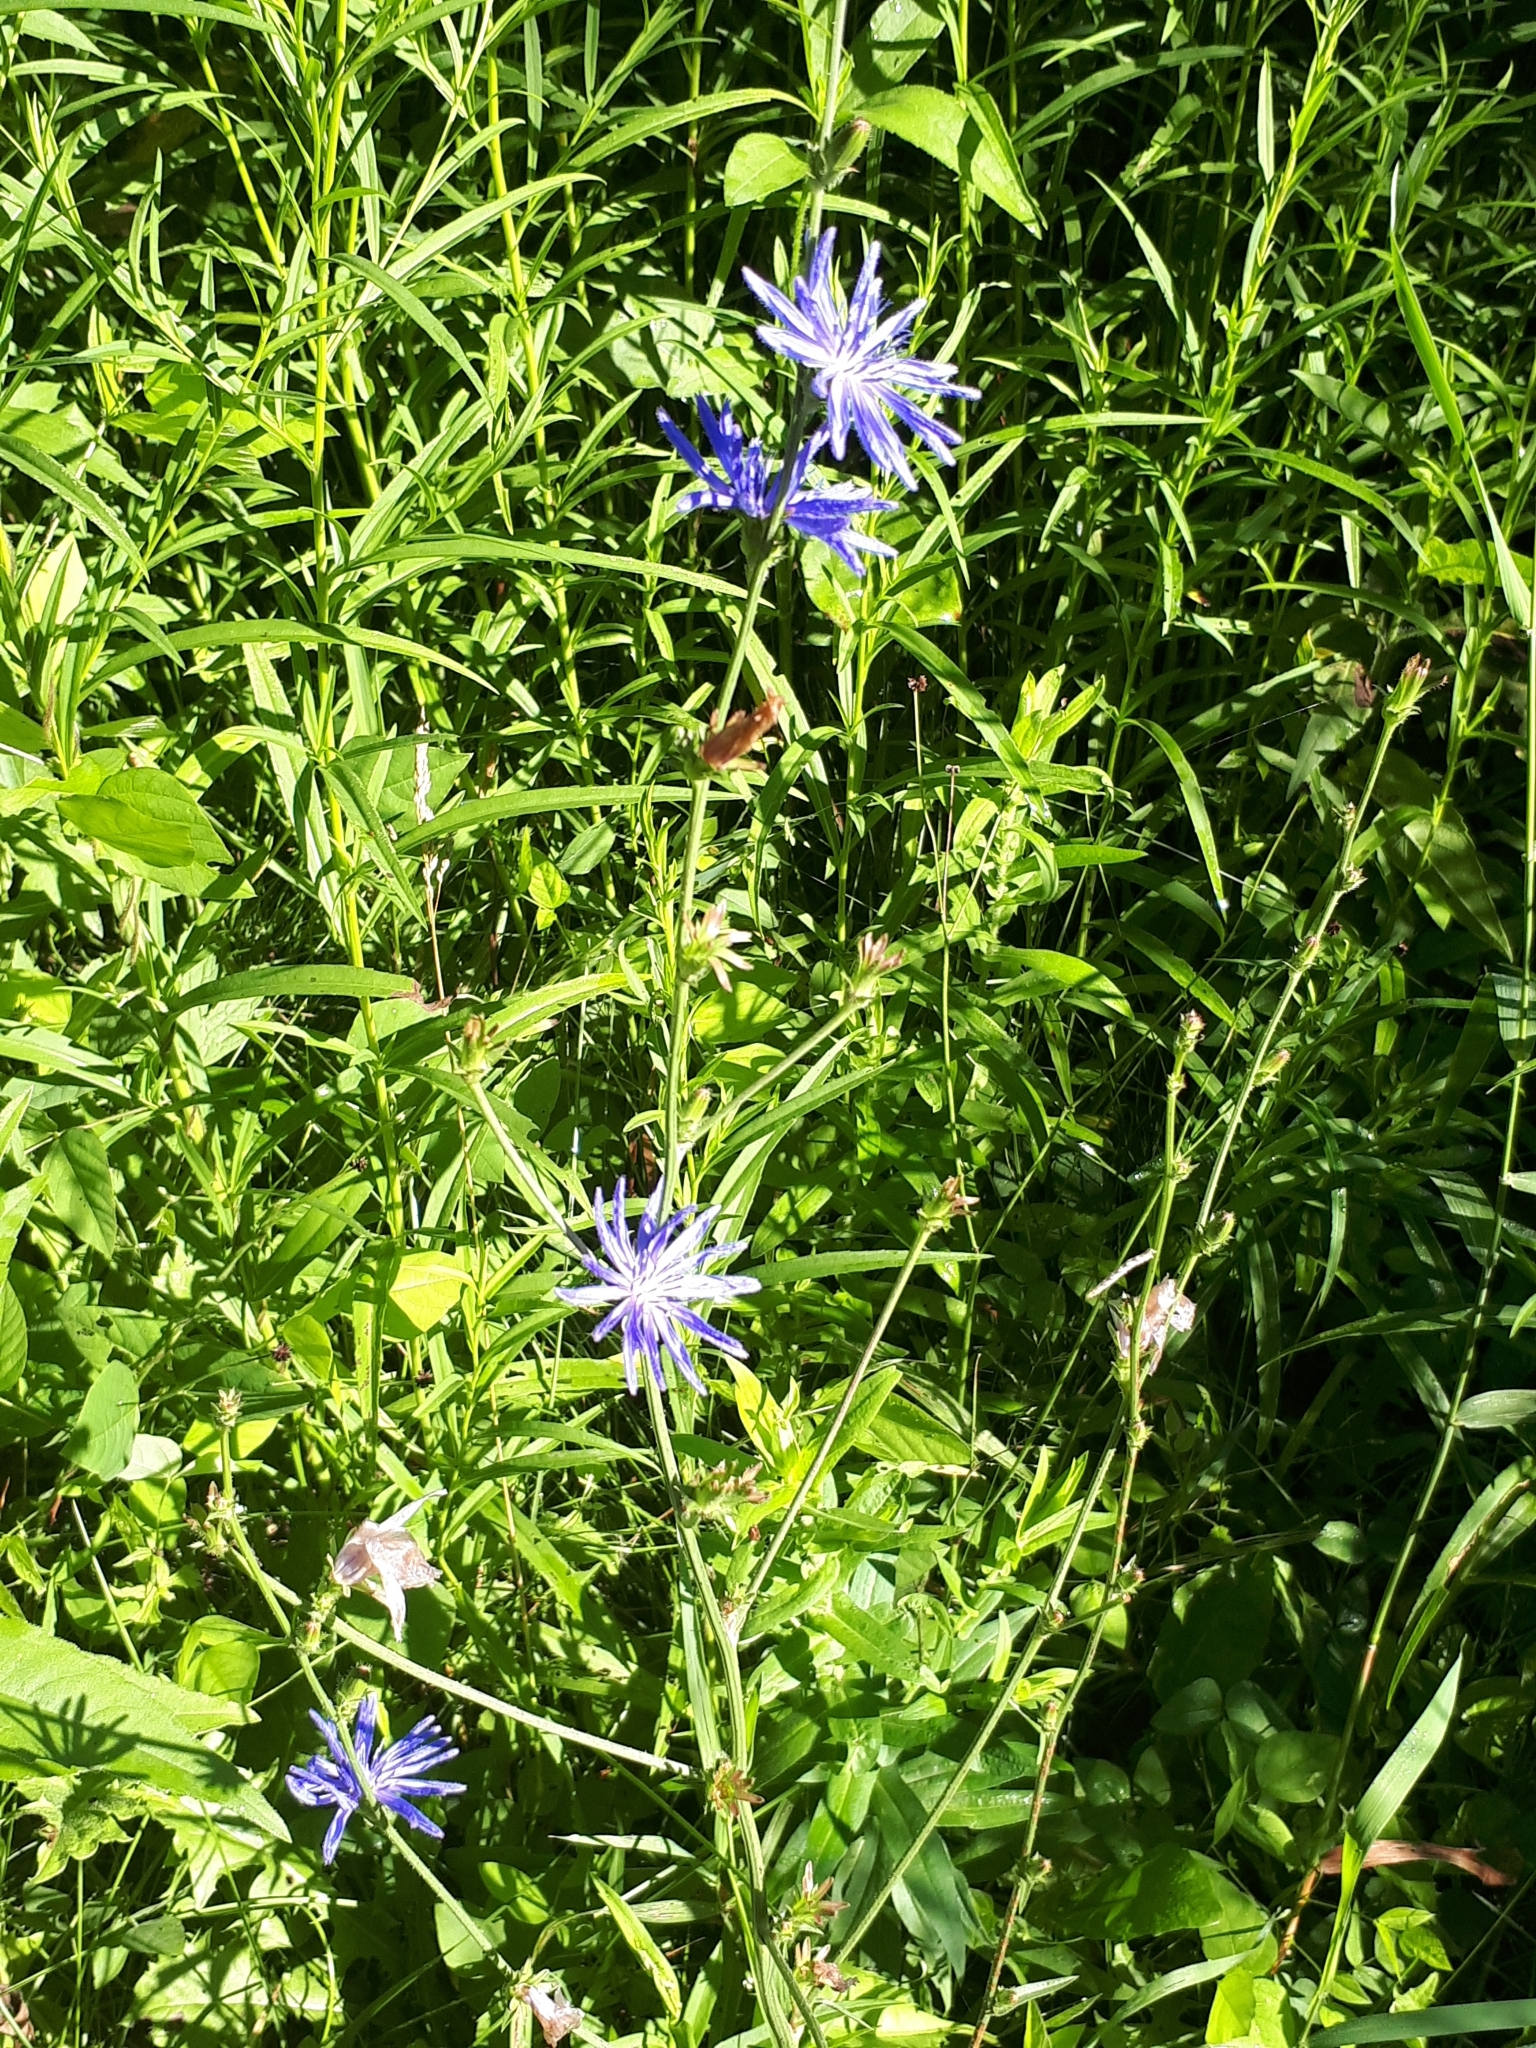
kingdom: Plantae
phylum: Tracheophyta
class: Magnoliopsida
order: Asterales
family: Asteraceae
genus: Cichorium
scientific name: Cichorium intybus
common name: Chicory
